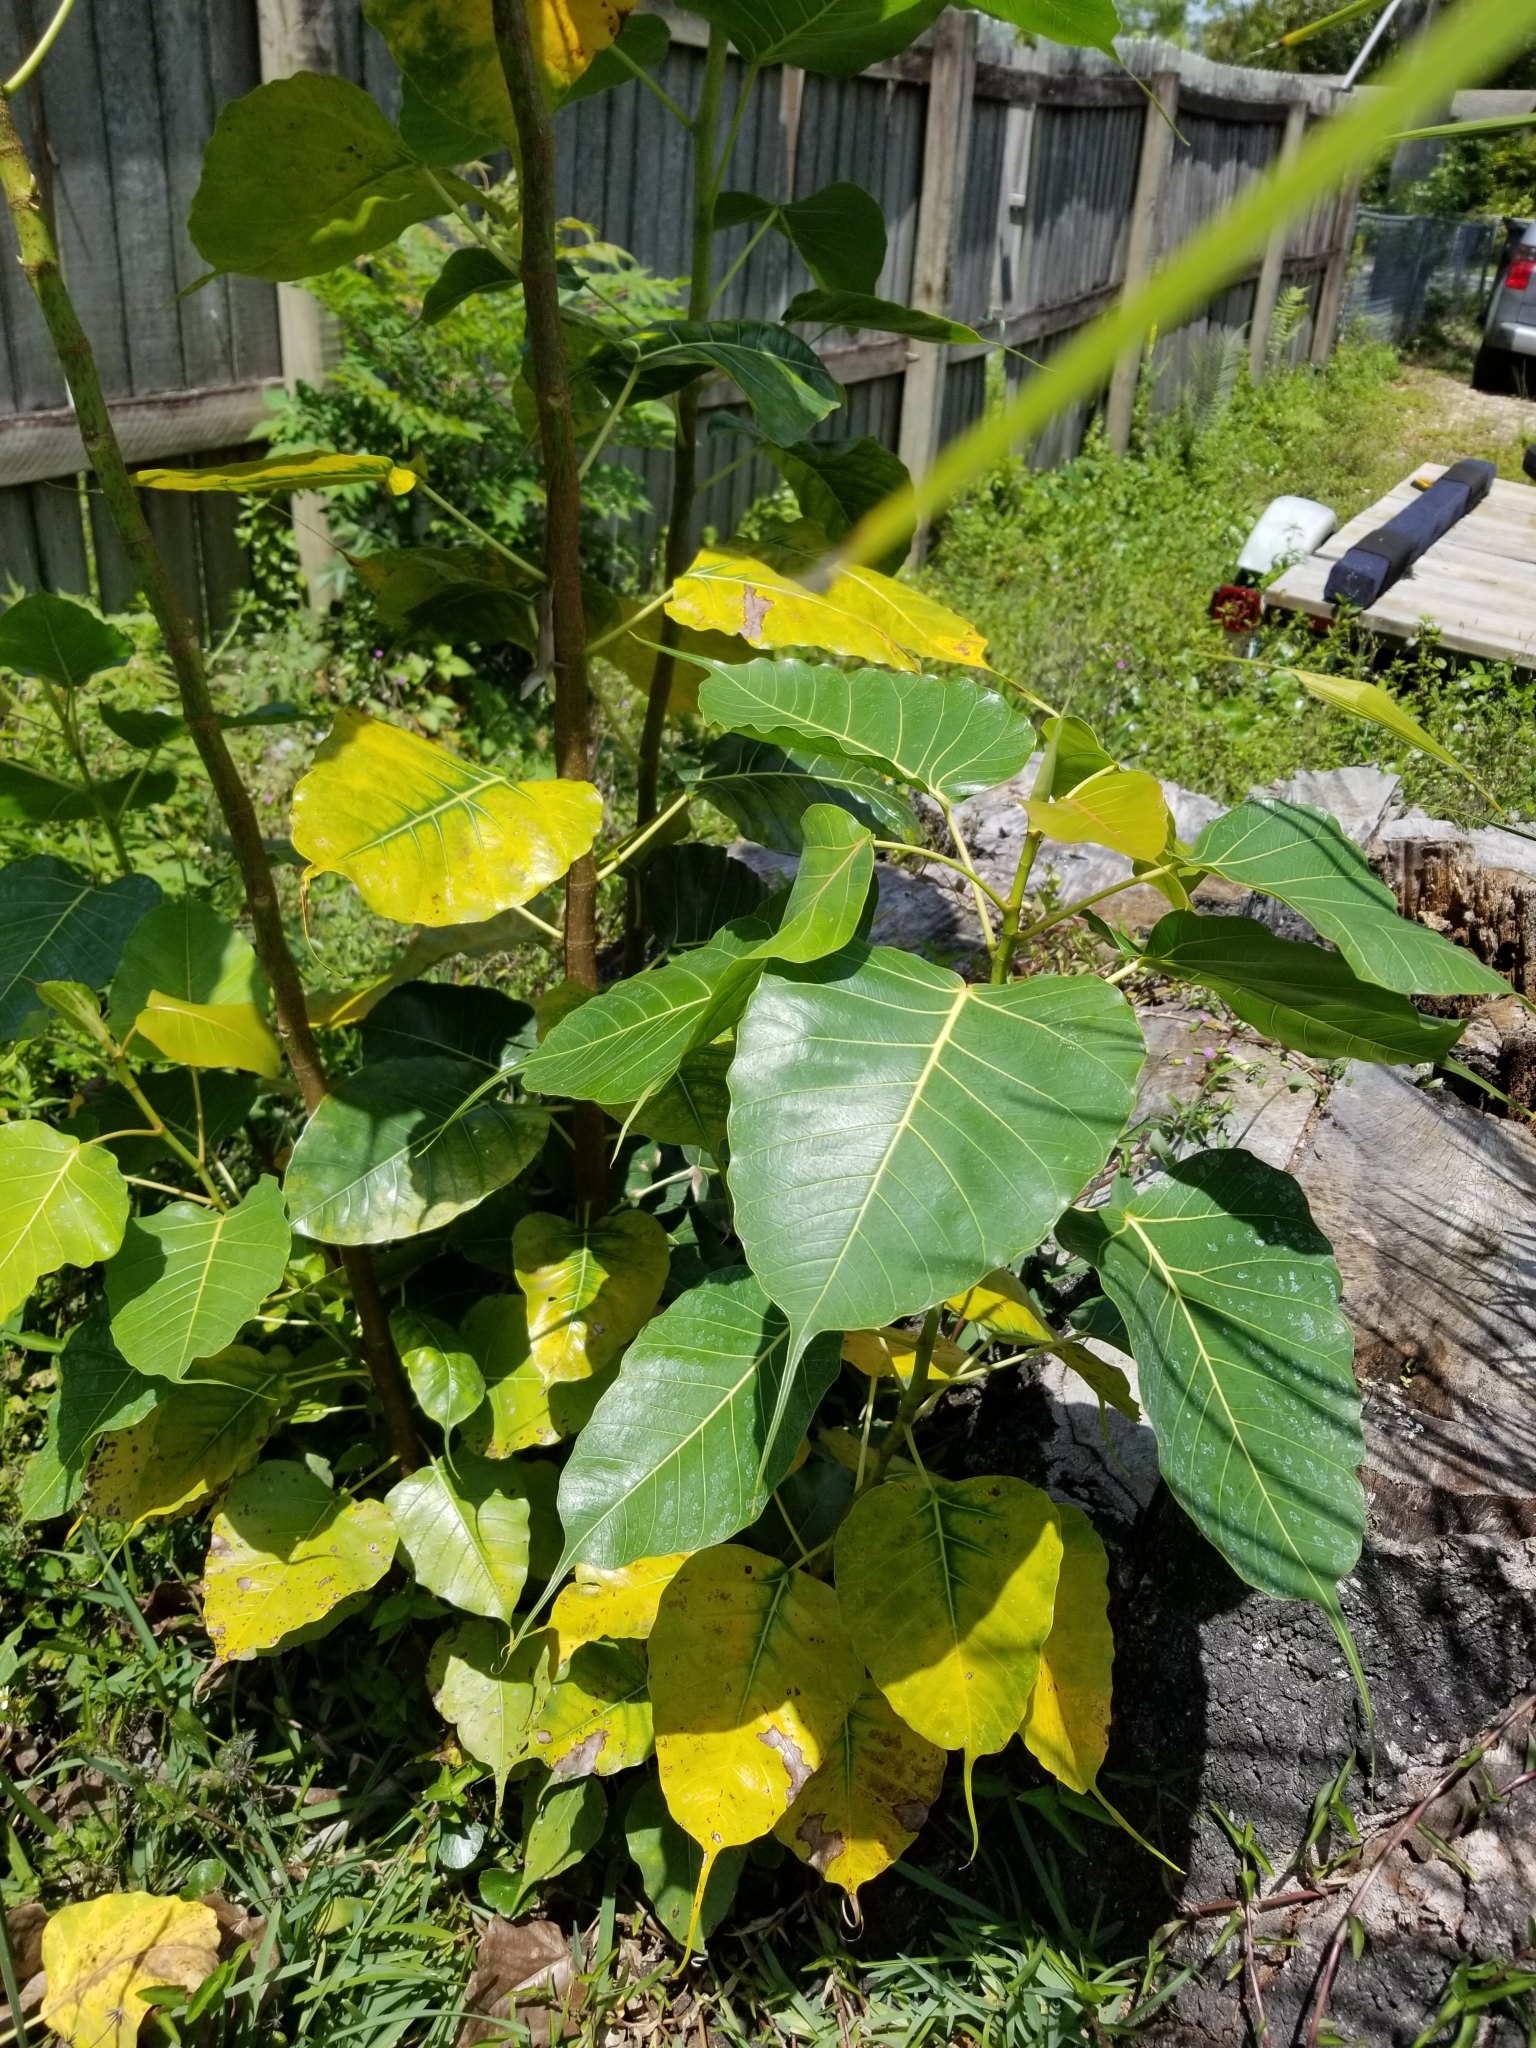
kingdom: Plantae
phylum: Tracheophyta
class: Magnoliopsida
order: Rosales
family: Moraceae
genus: Ficus
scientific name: Ficus religiosa
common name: Bodhi tree
